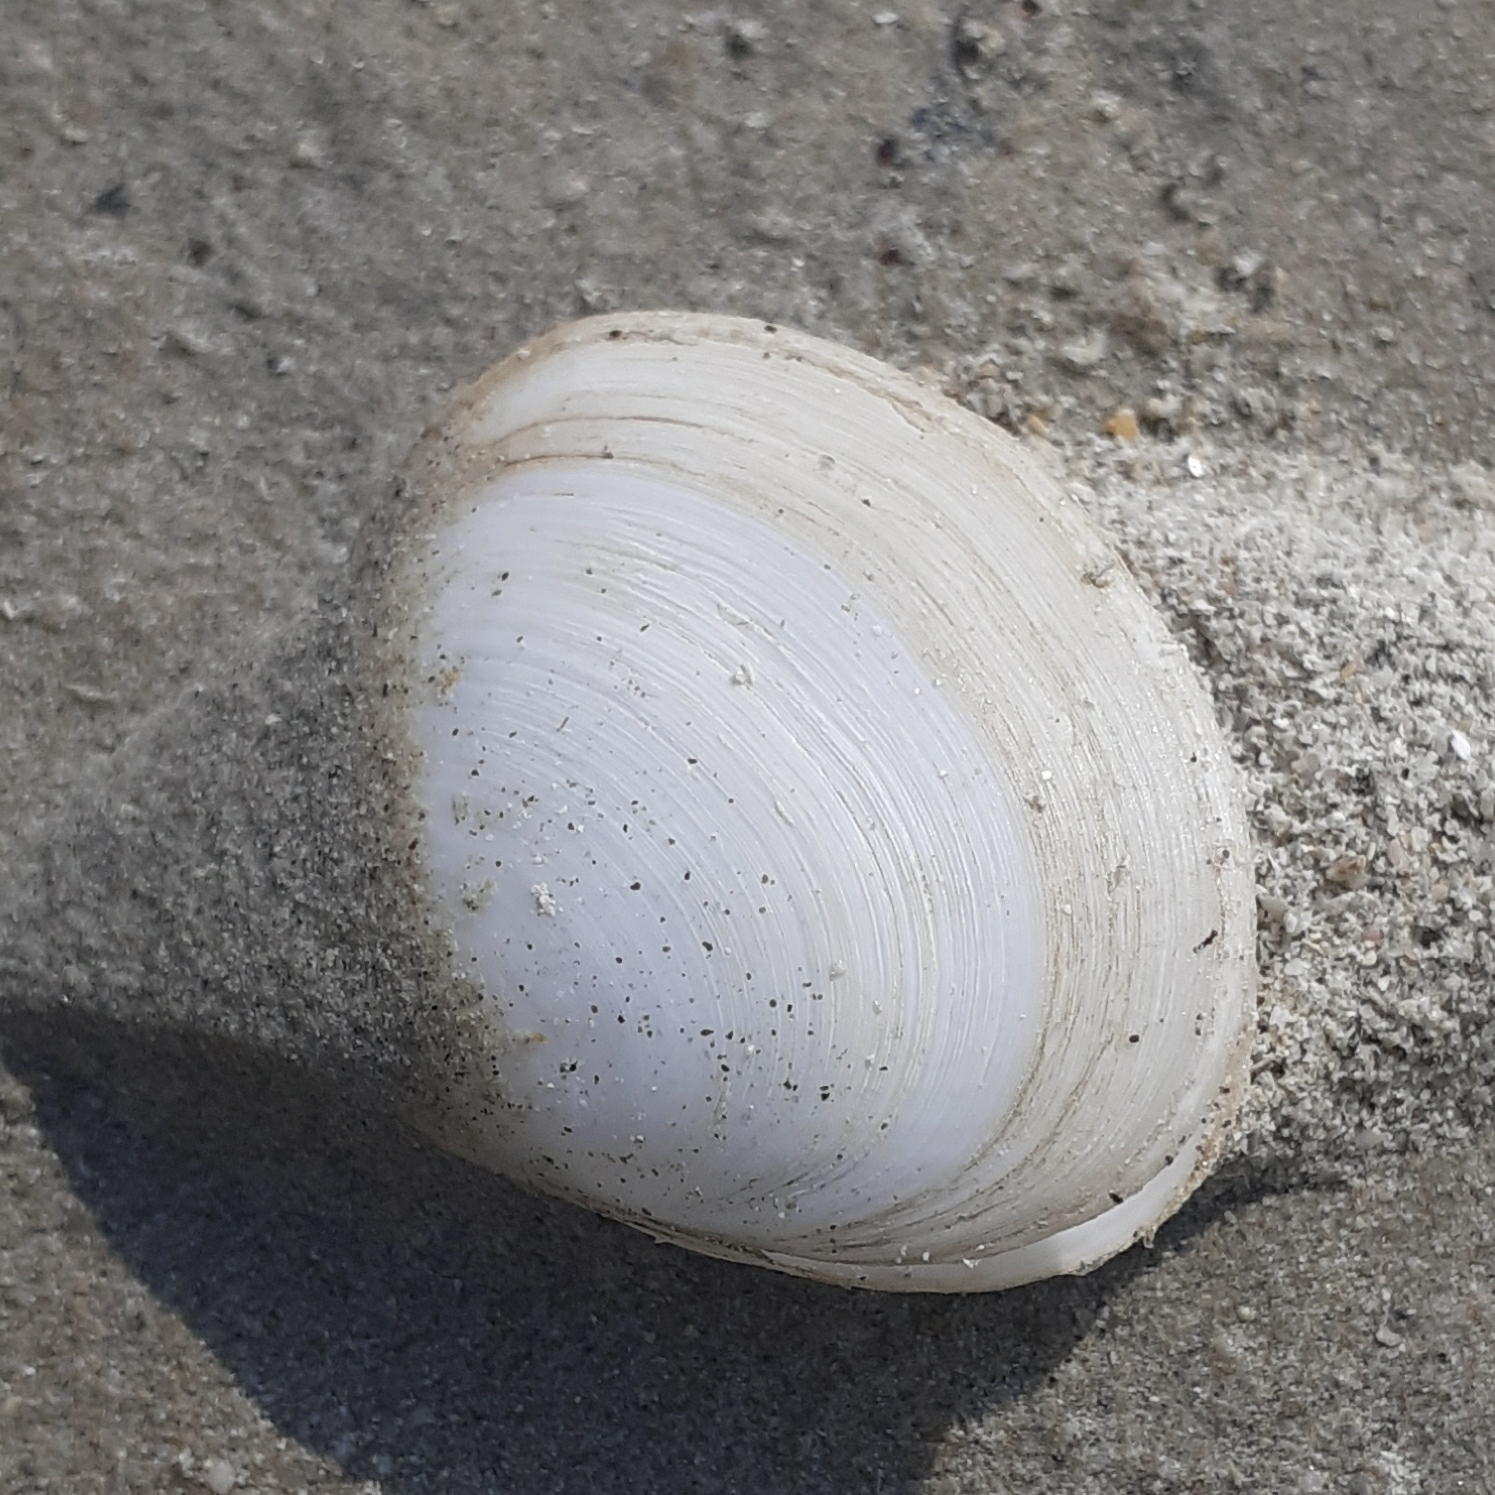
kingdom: Animalia
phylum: Mollusca
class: Bivalvia
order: Cardiida
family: Semelidae
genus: Scrobicularia
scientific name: Scrobicularia plana
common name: Peppery furrow shell
